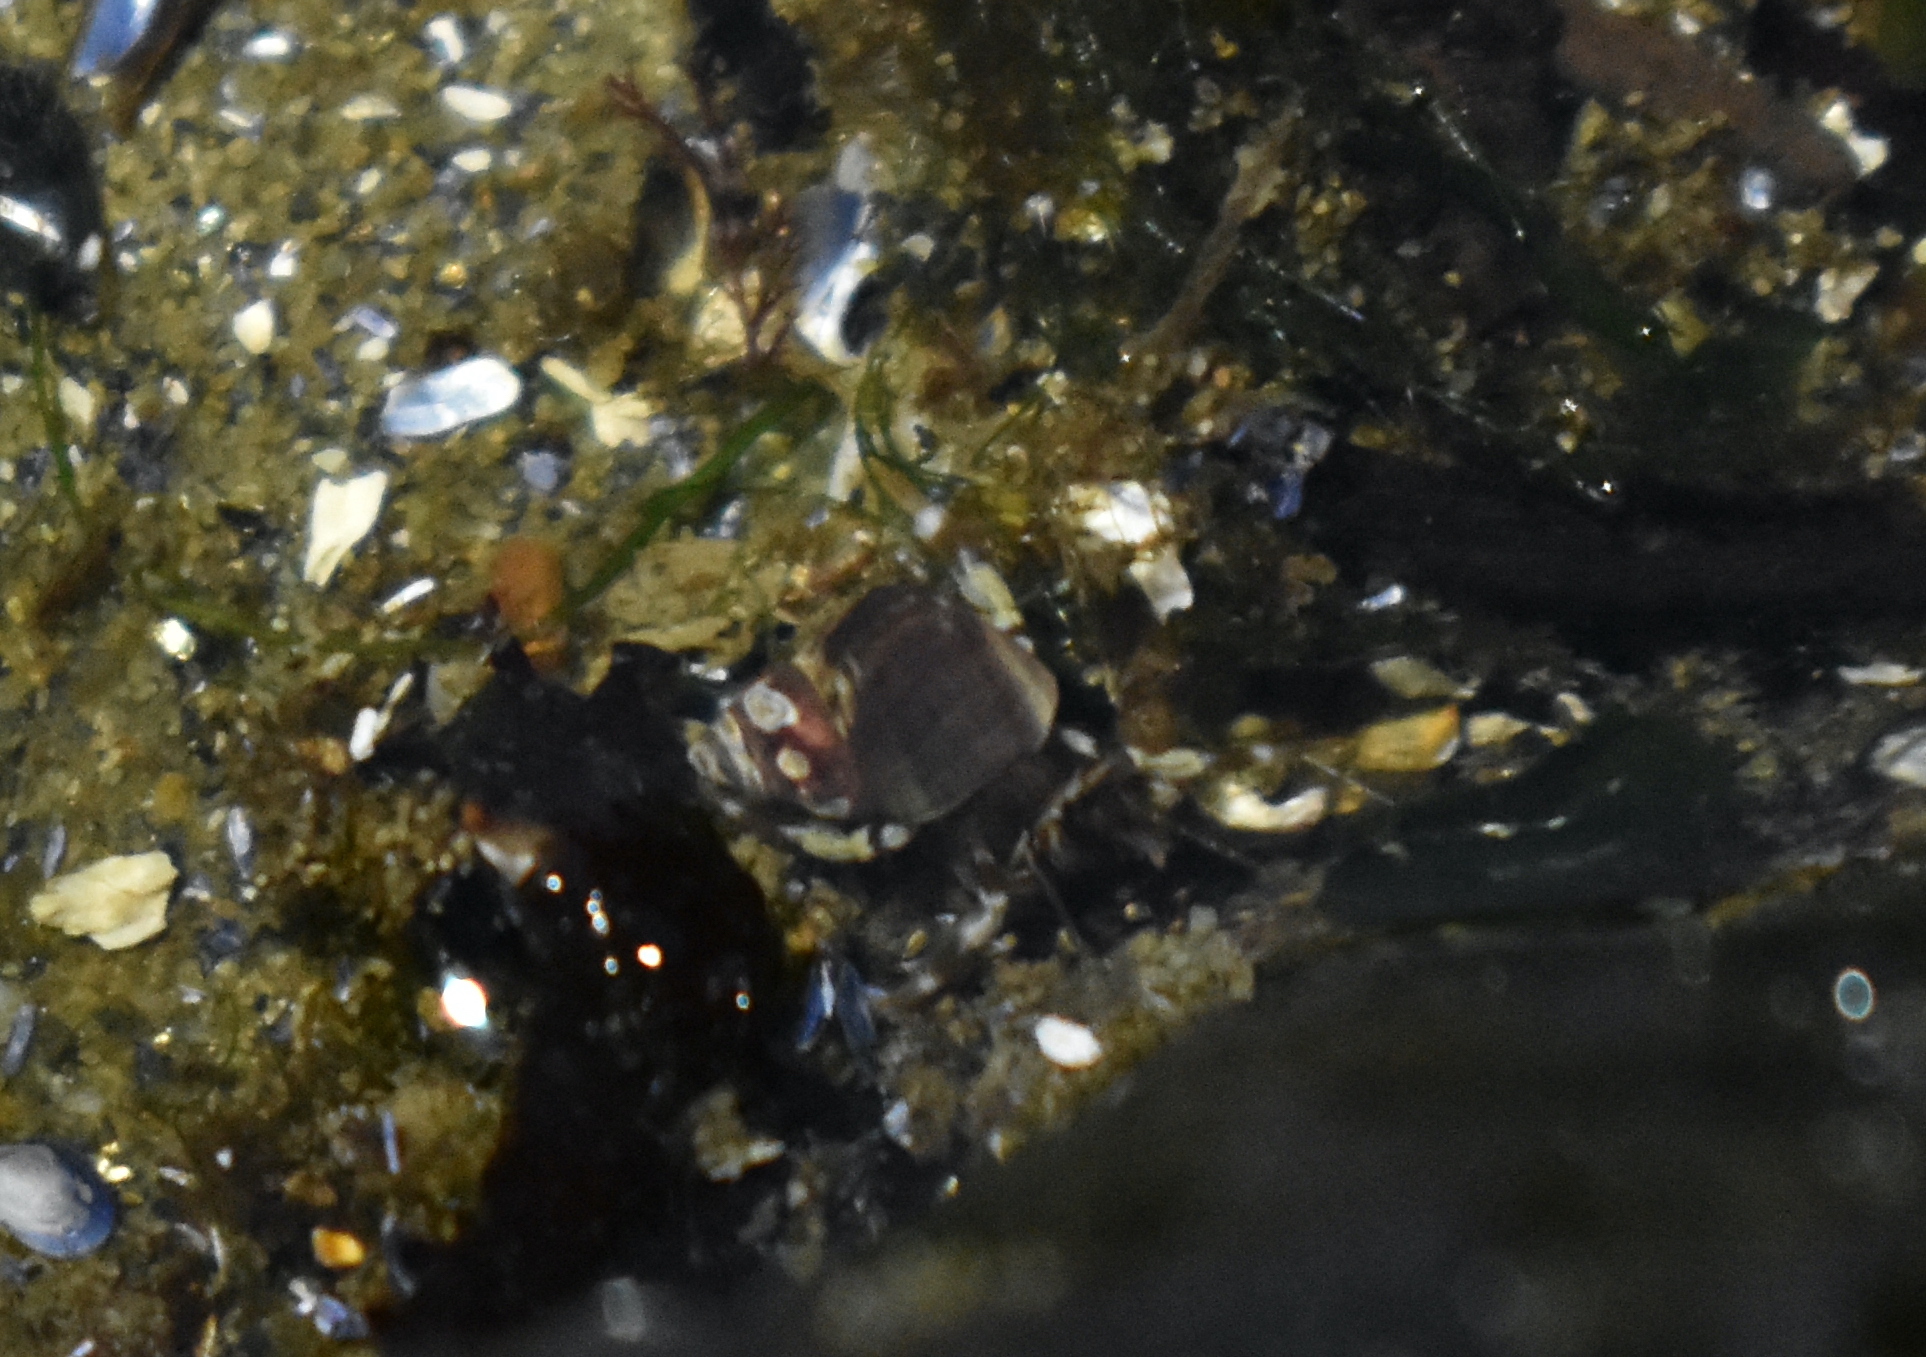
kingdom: Animalia
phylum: Arthropoda
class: Malacostraca
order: Decapoda
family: Paguridae
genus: Pagurus
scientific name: Pagurus hirsutiusculus
